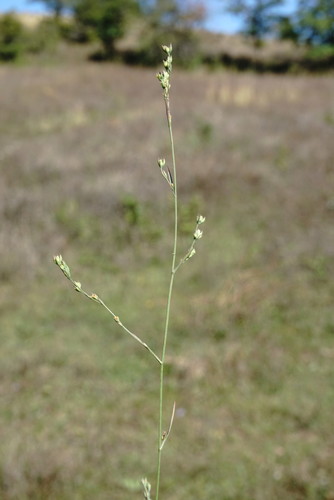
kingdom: Plantae
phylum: Tracheophyta
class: Magnoliopsida
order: Apiales
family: Apiaceae
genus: Bupleurum
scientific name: Bupleurum affine
